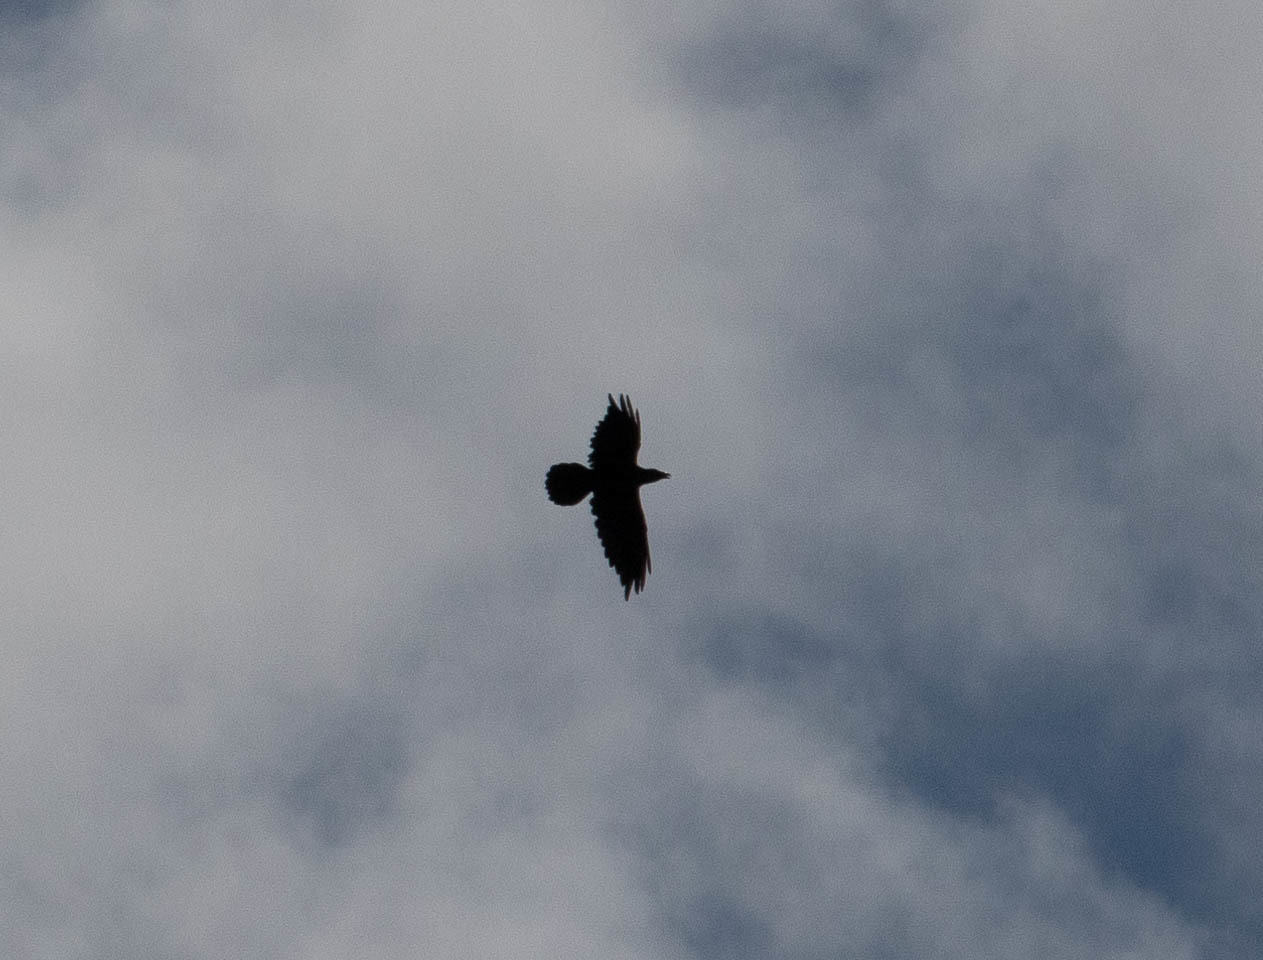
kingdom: Animalia
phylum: Chordata
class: Aves
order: Passeriformes
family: Corvidae
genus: Corvus
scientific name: Corvus corax
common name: Common raven
